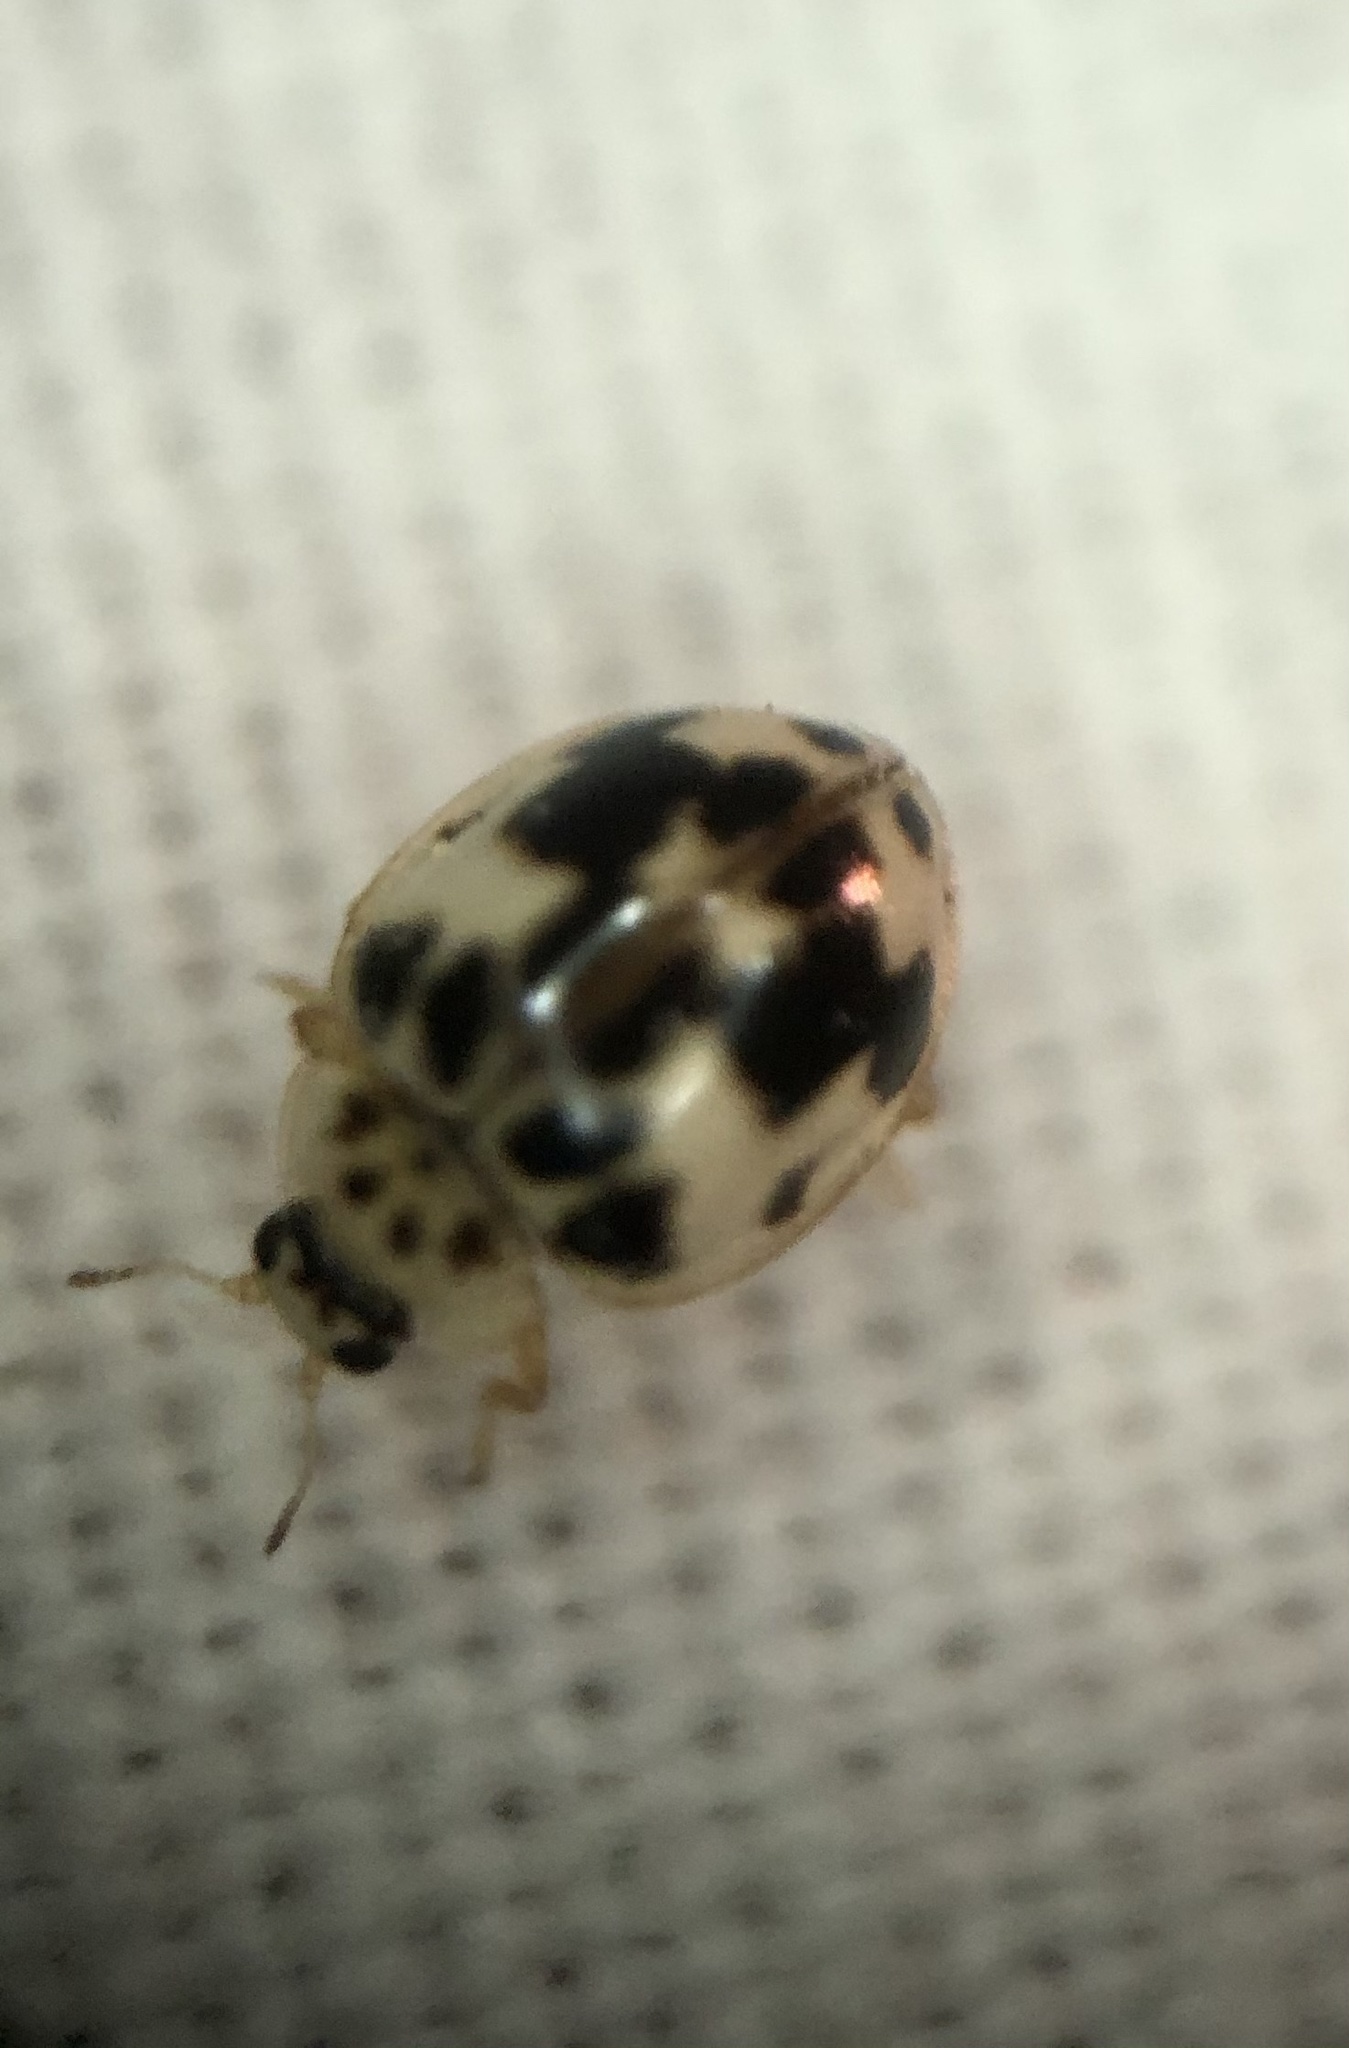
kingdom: Animalia
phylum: Arthropoda
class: Insecta
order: Coleoptera
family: Coccinellidae
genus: Psyllobora
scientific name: Psyllobora borealis
